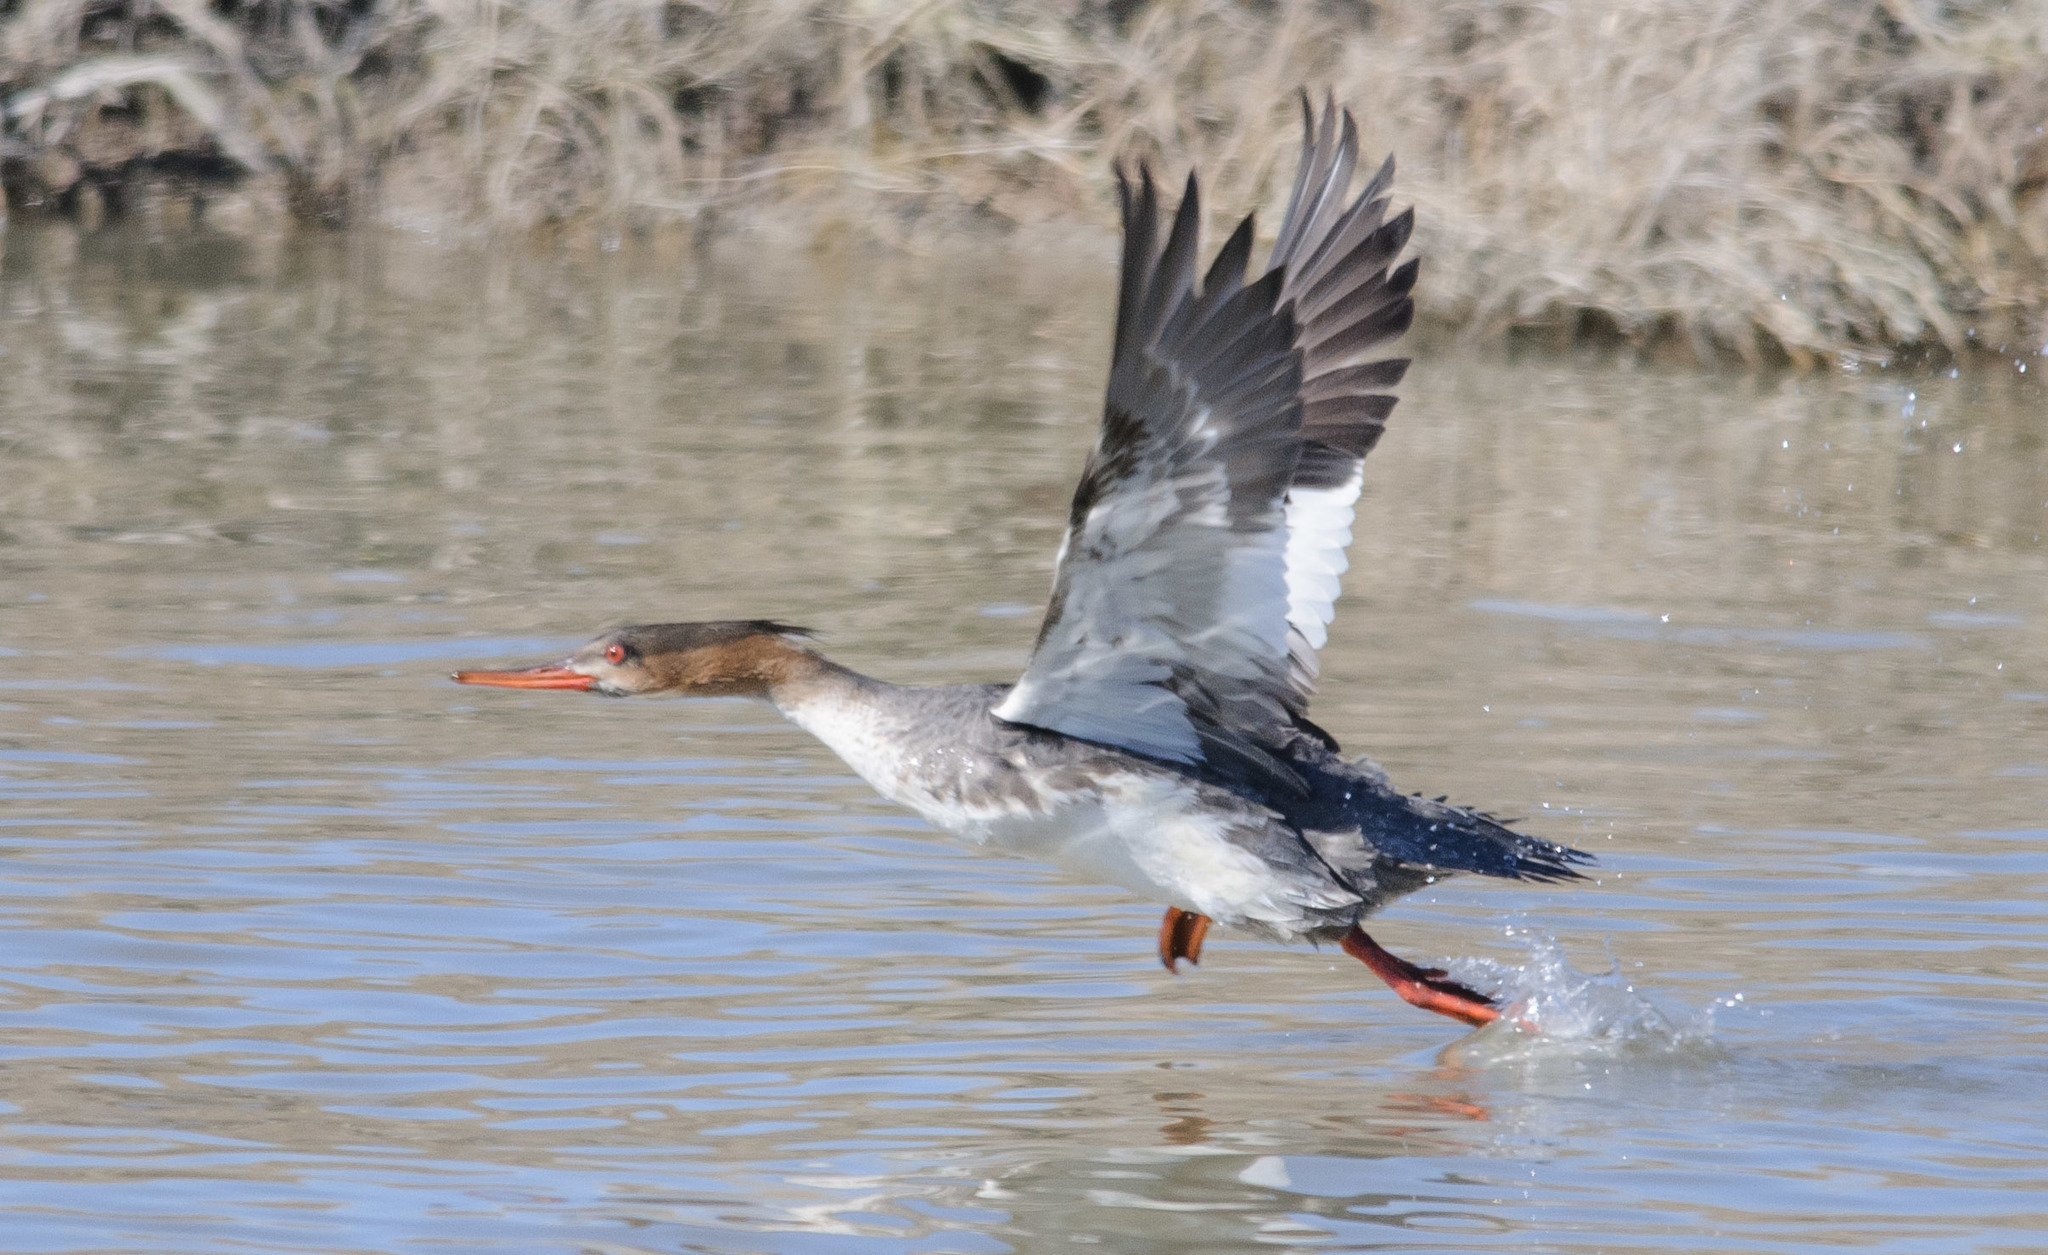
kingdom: Animalia
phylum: Chordata
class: Aves
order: Anseriformes
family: Anatidae
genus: Mergus
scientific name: Mergus serrator
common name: Red-breasted merganser
